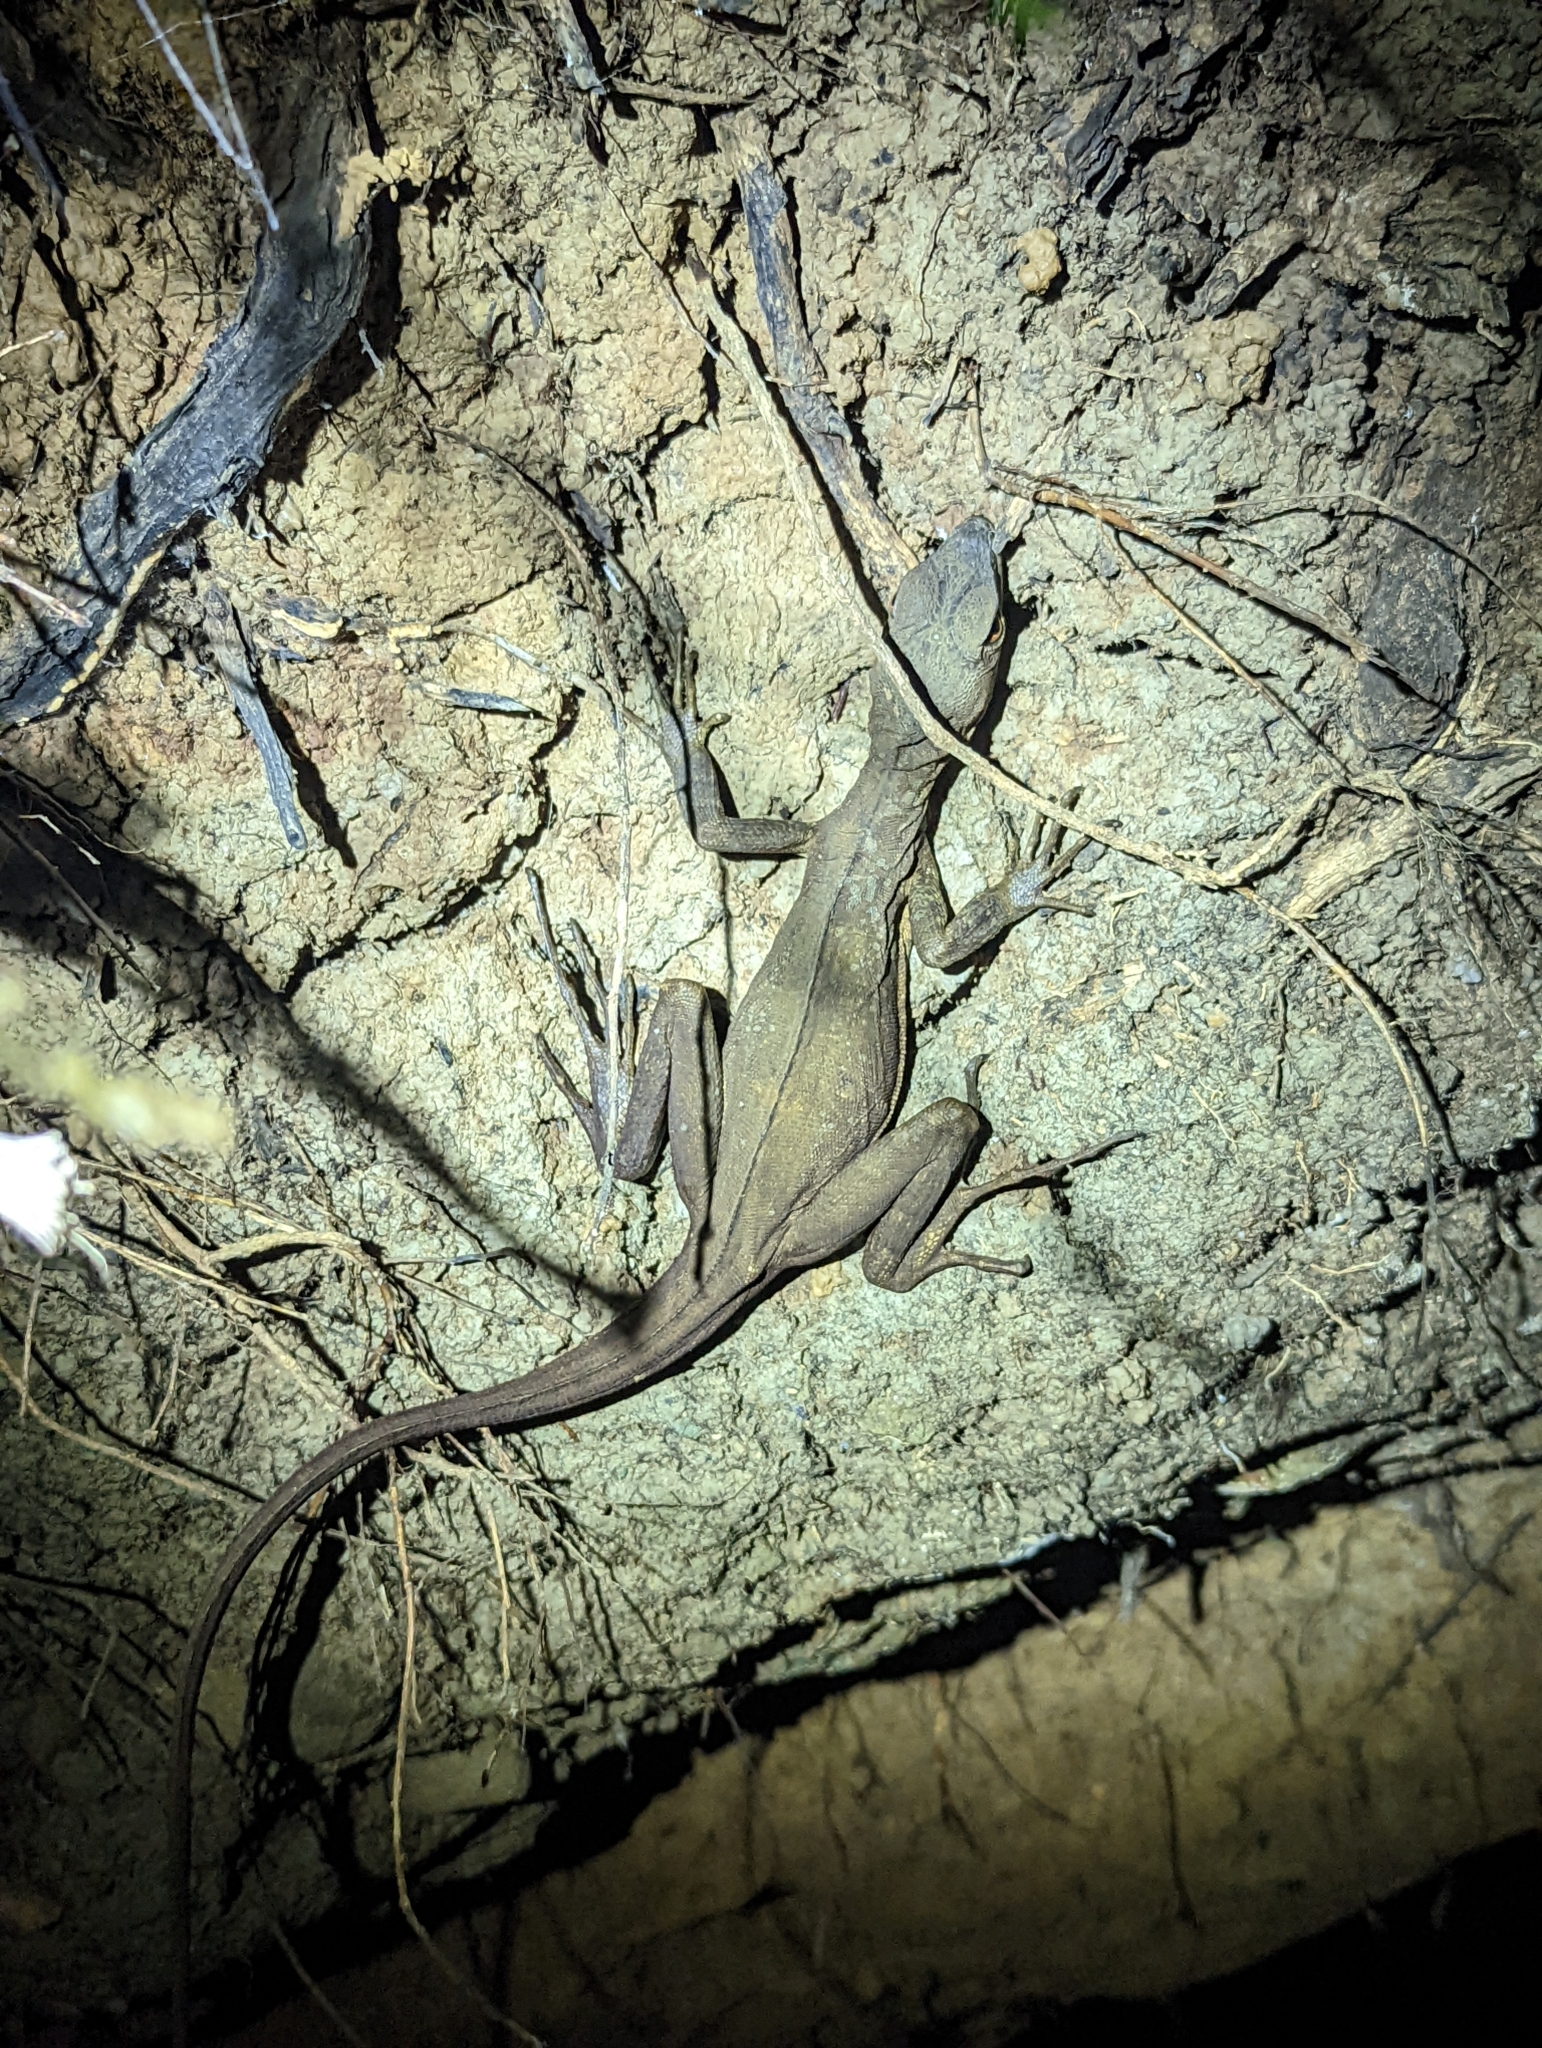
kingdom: Animalia
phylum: Chordata
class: Squamata
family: Corytophanidae
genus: Basiliscus
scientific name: Basiliscus basiliscus
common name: Common basilisk
